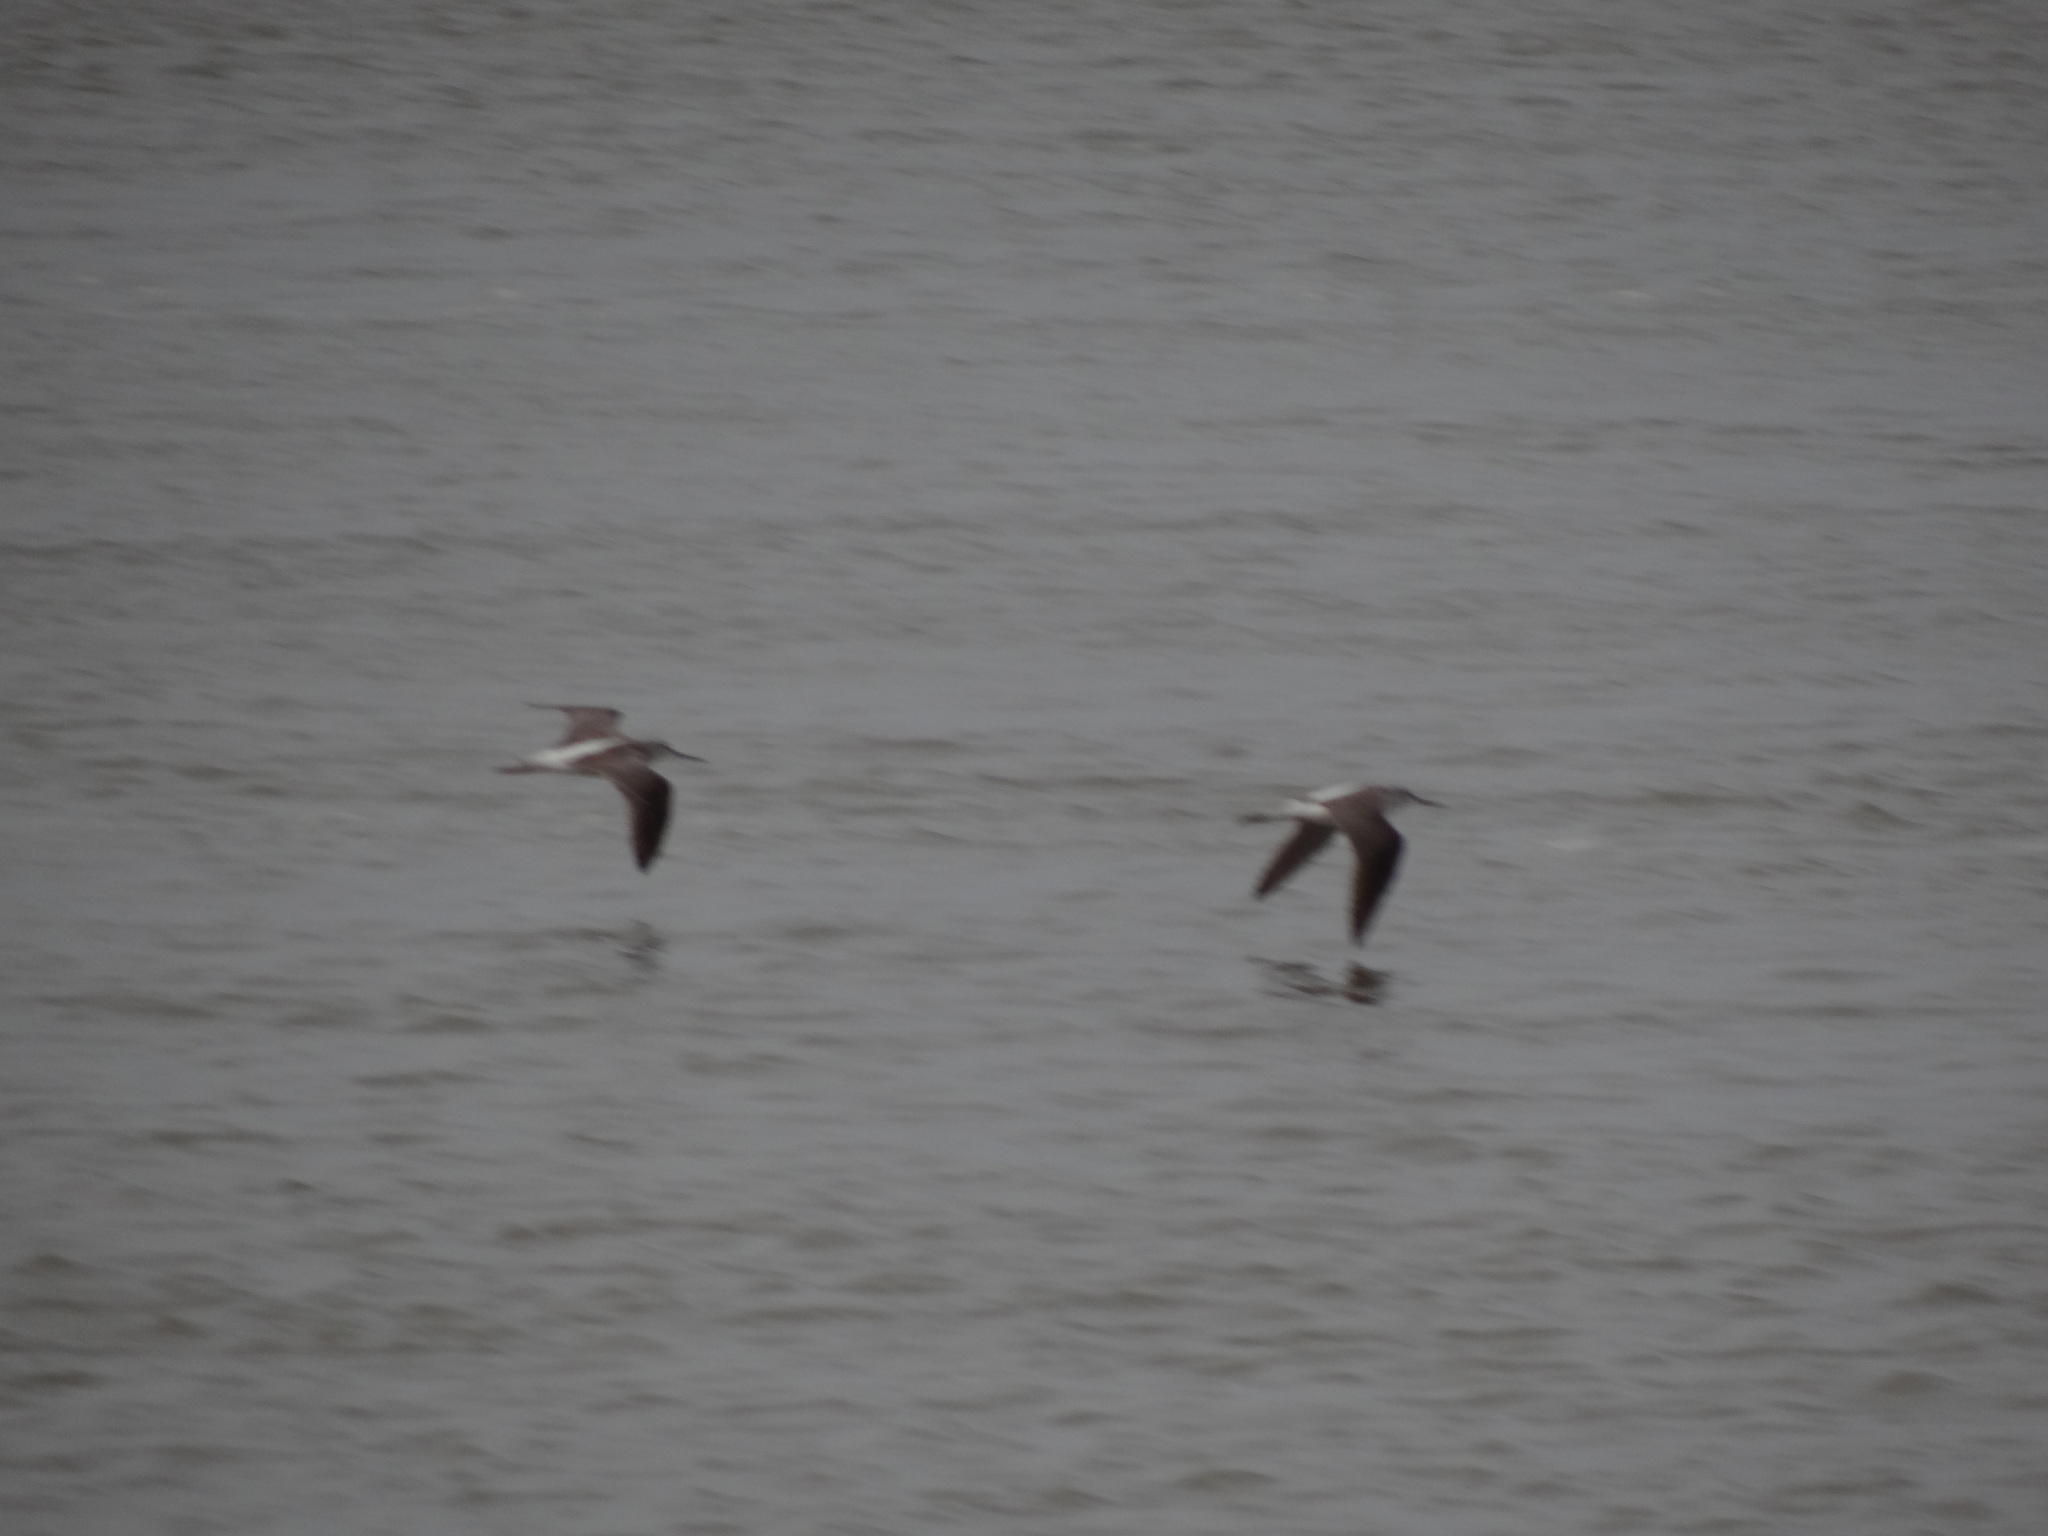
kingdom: Animalia
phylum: Chordata
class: Aves
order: Charadriiformes
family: Scolopacidae
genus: Tringa
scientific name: Tringa nebularia
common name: Common greenshank
